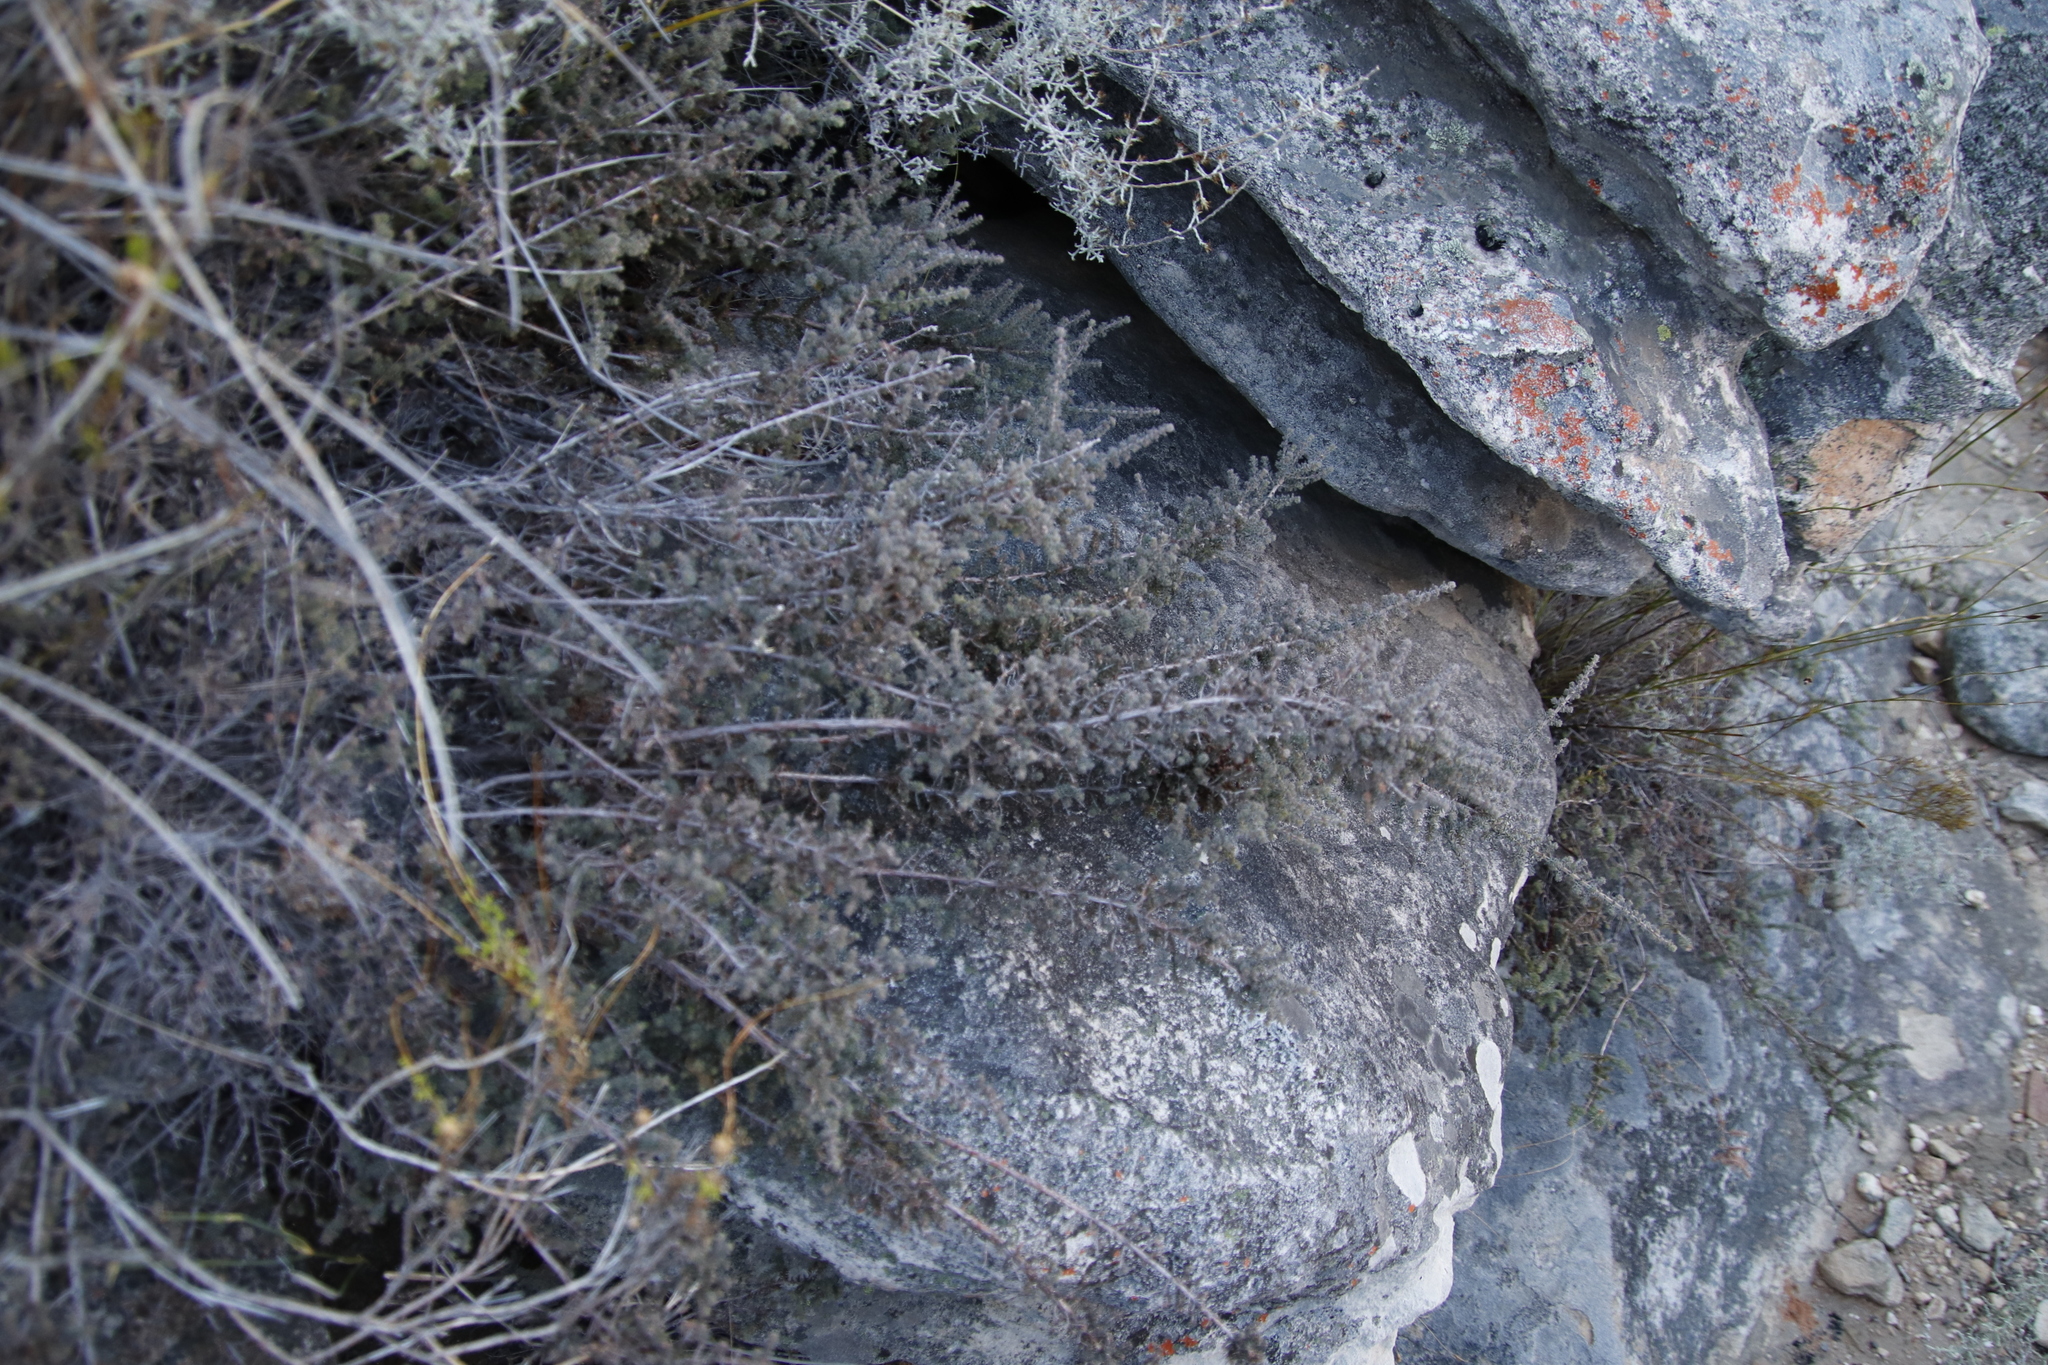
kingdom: Plantae
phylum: Tracheophyta
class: Magnoliopsida
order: Ericales
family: Ericaceae
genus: Erica
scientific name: Erica totta
